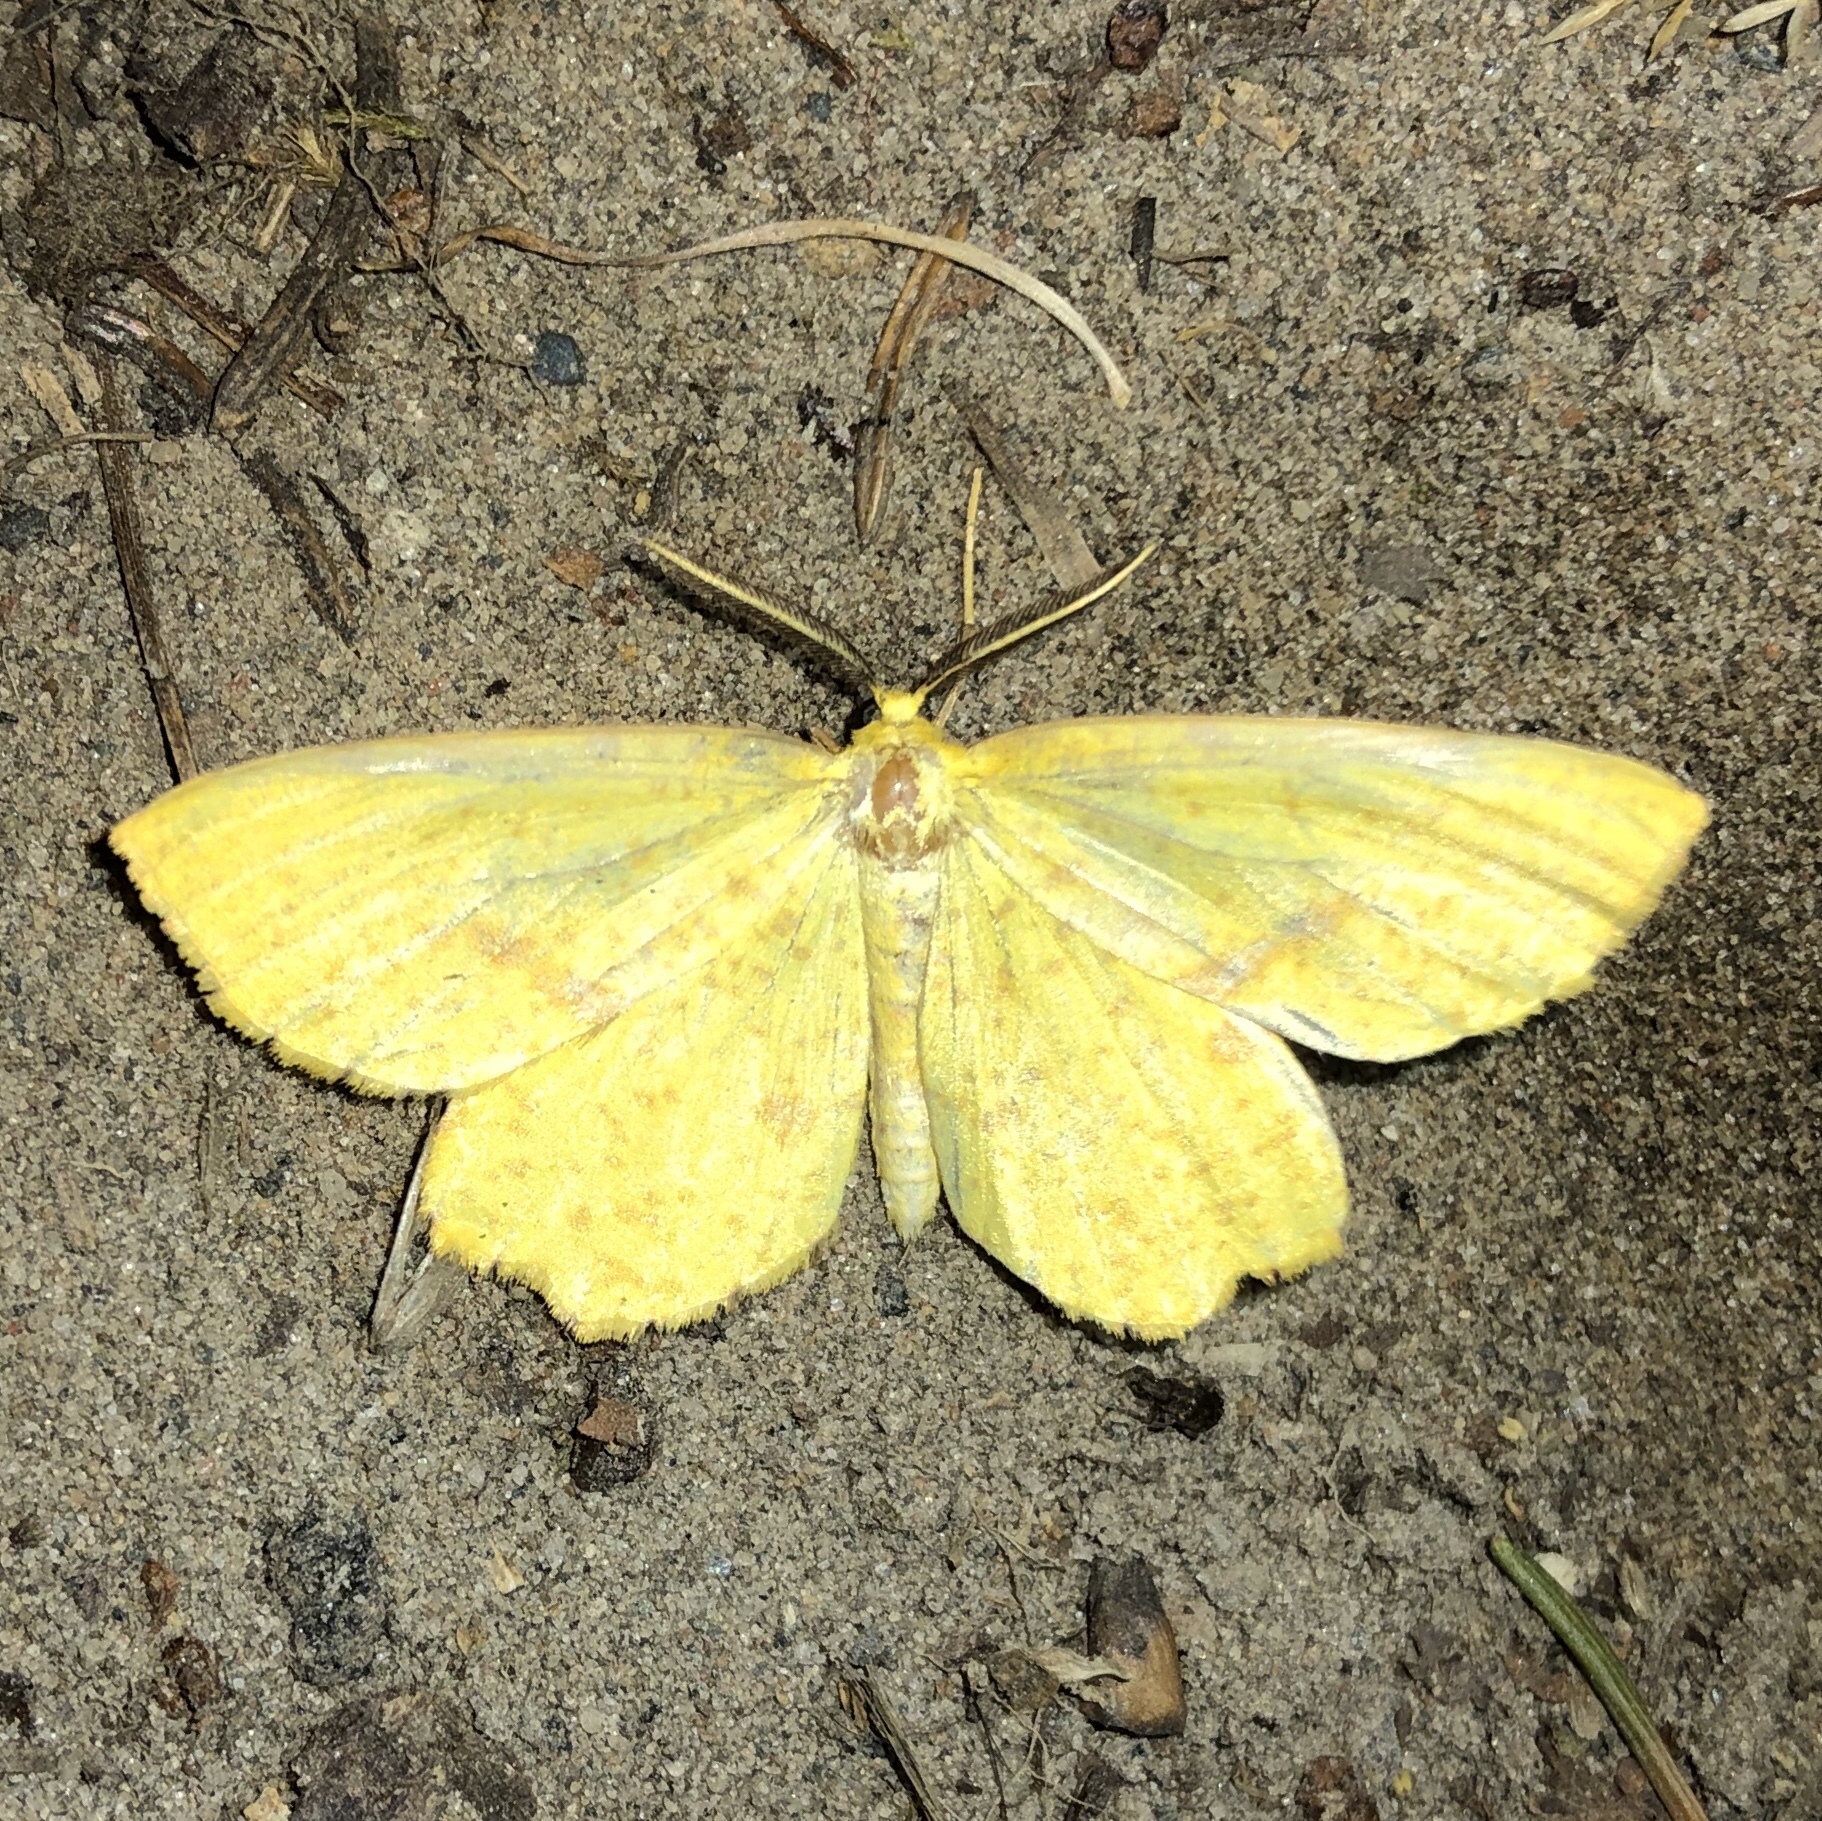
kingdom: Animalia
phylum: Arthropoda
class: Insecta
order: Lepidoptera
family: Geometridae
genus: Xanthotype
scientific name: Xanthotype
